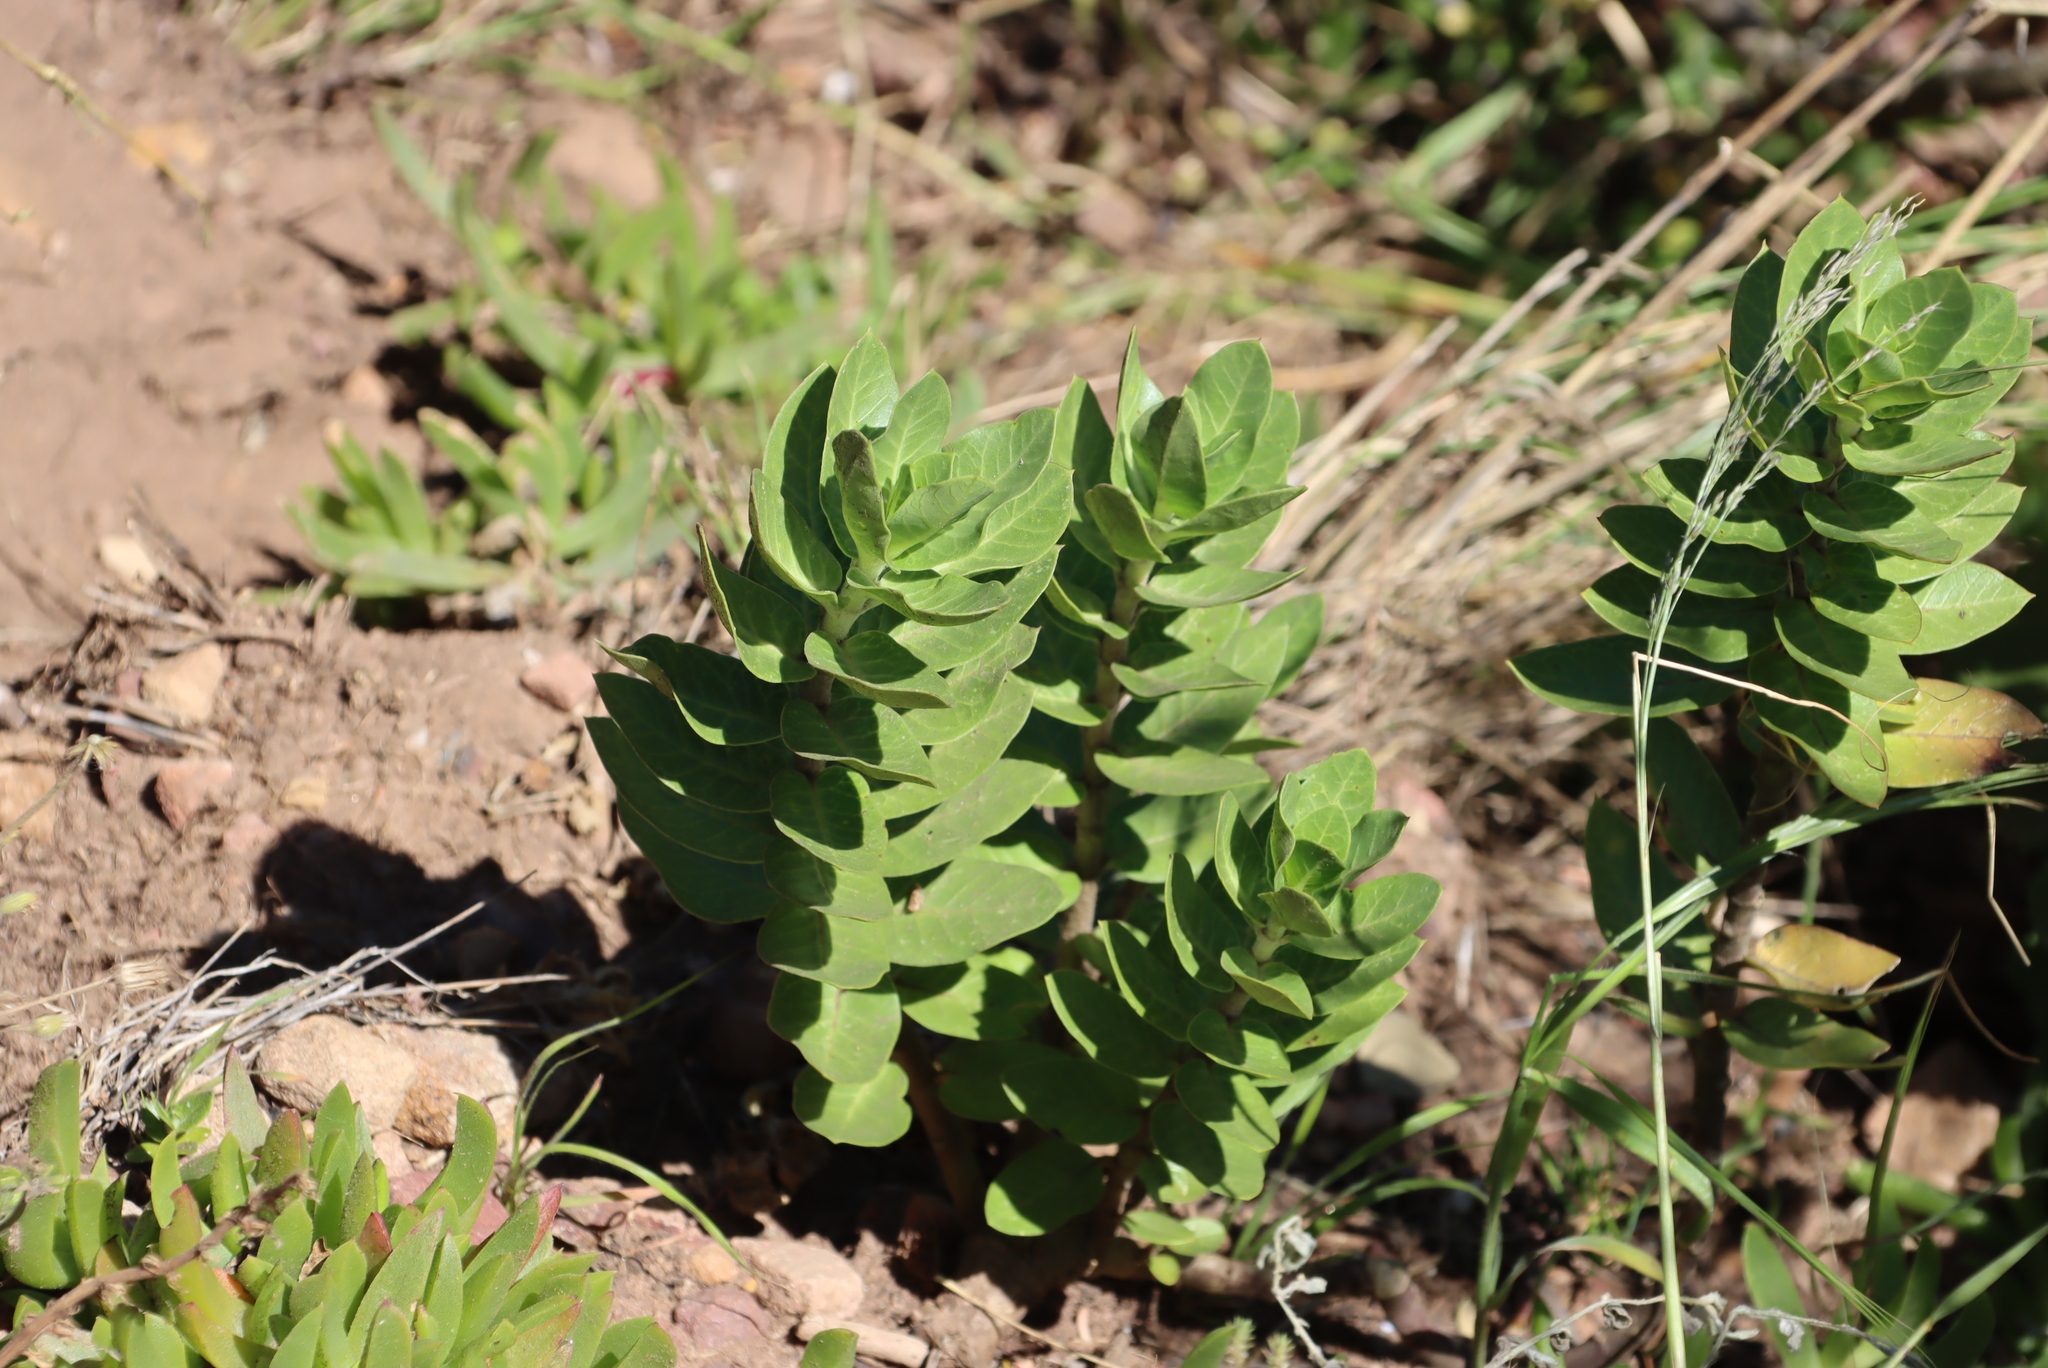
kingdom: Plantae
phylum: Tracheophyta
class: Magnoliopsida
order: Gentianales
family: Apocynaceae
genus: Gomphocarpus
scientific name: Gomphocarpus cancellatus
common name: Wild cotton
